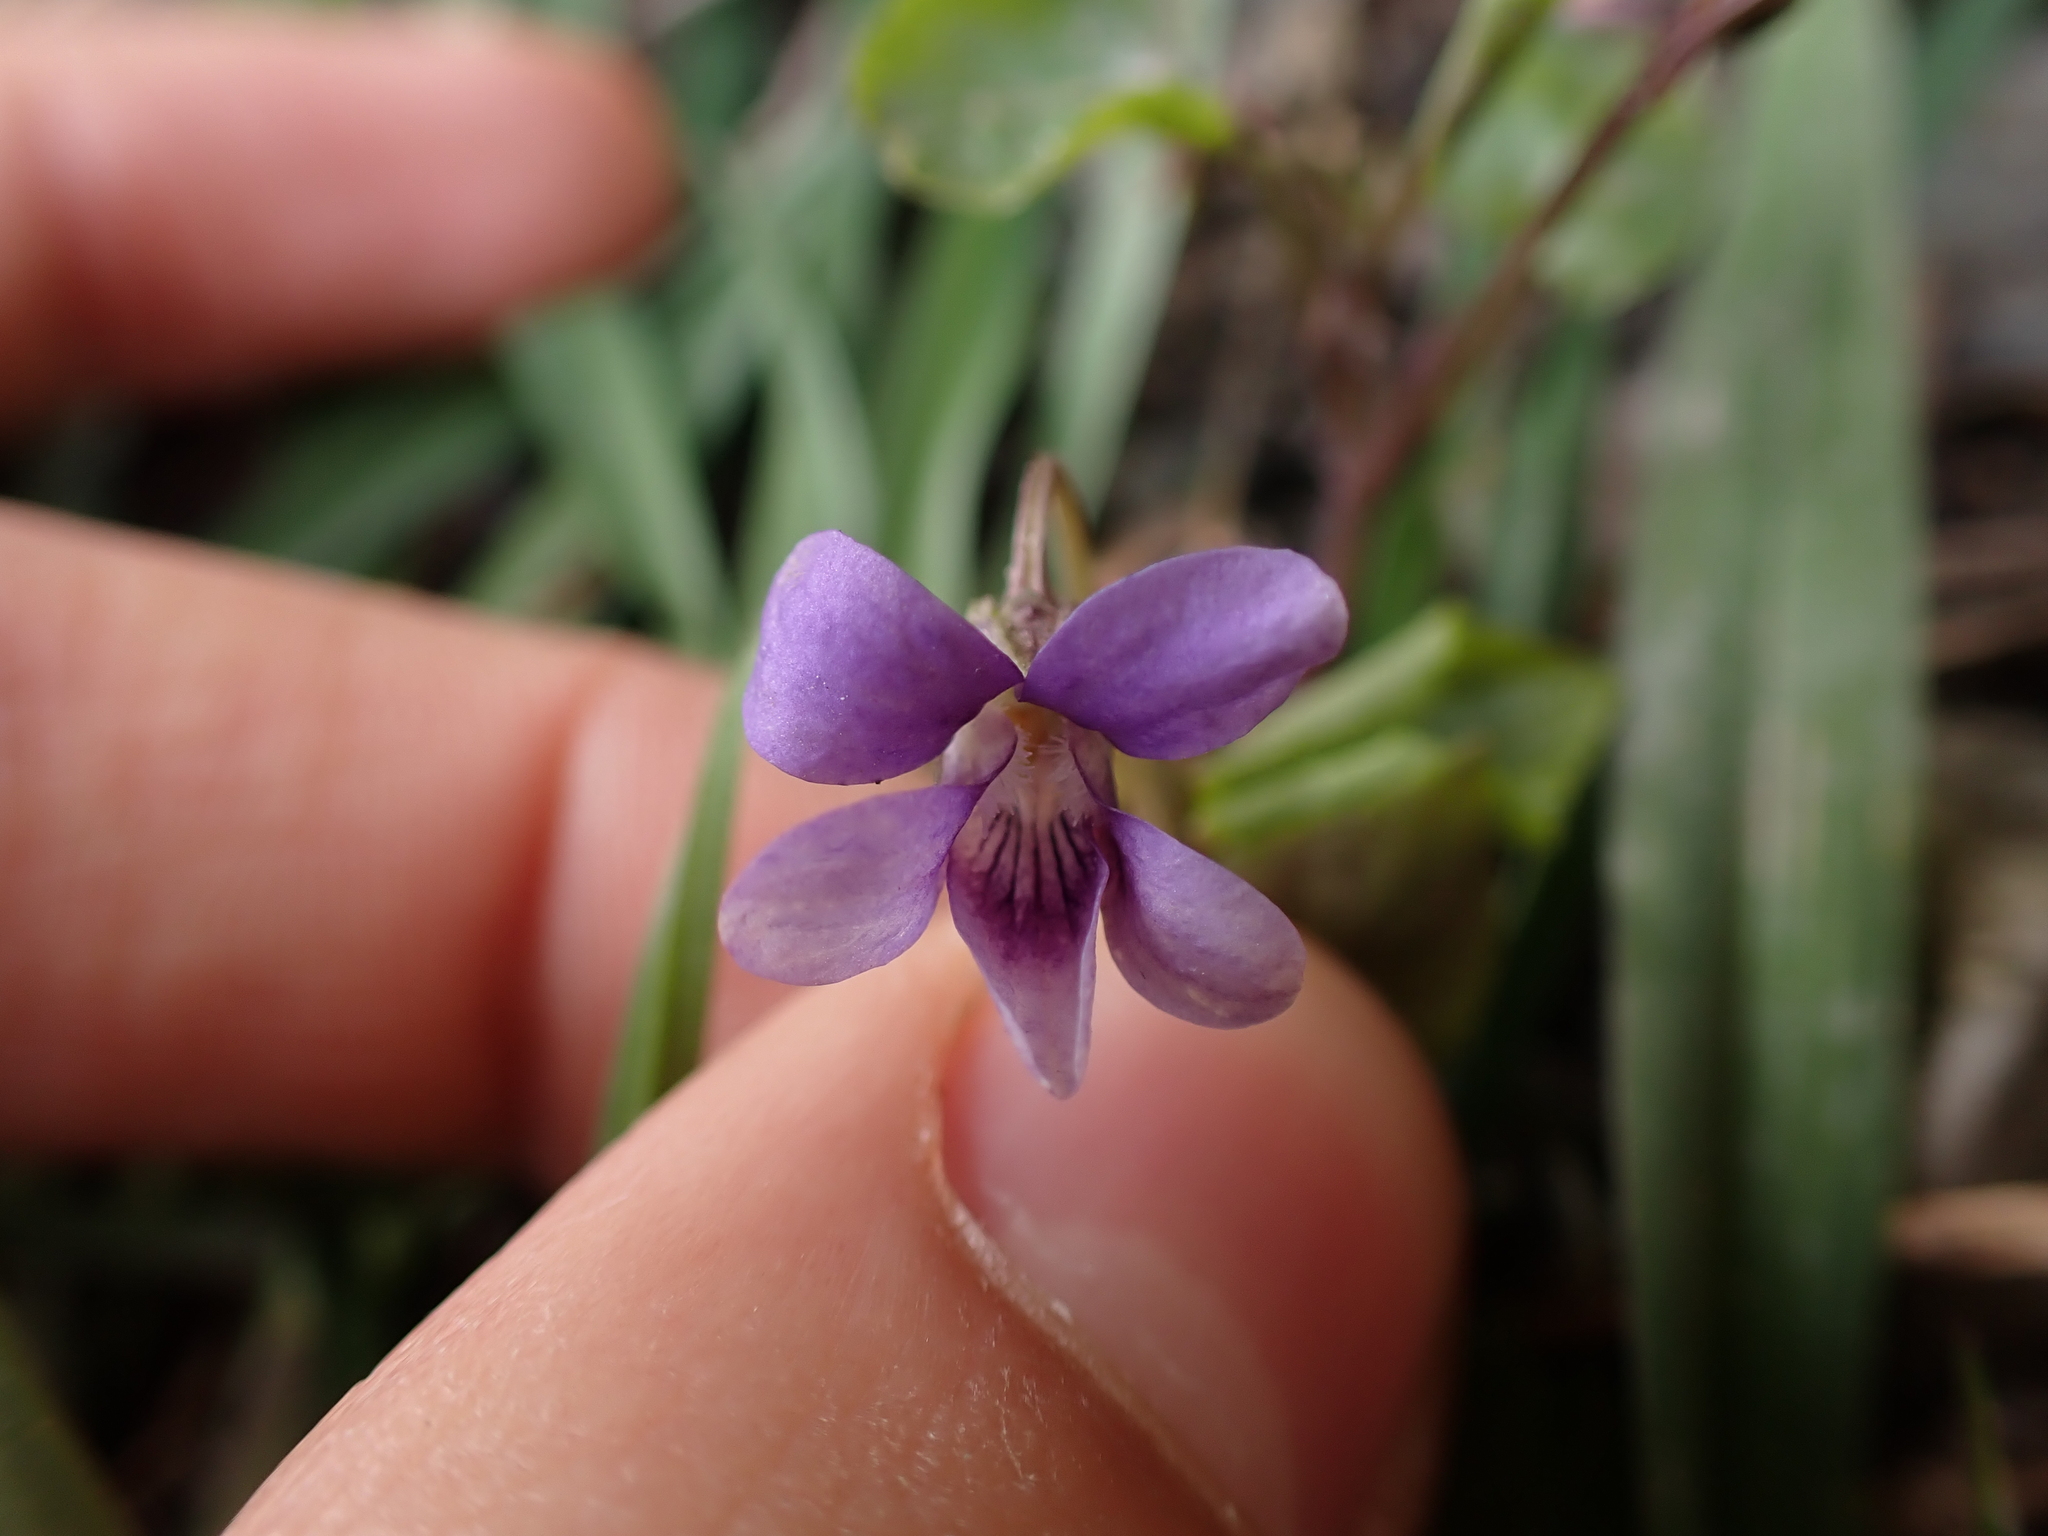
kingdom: Plantae
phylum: Tracheophyta
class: Magnoliopsida
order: Malpighiales
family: Violaceae
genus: Viola
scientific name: Viola reichenbachiana
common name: Early dog-violet
